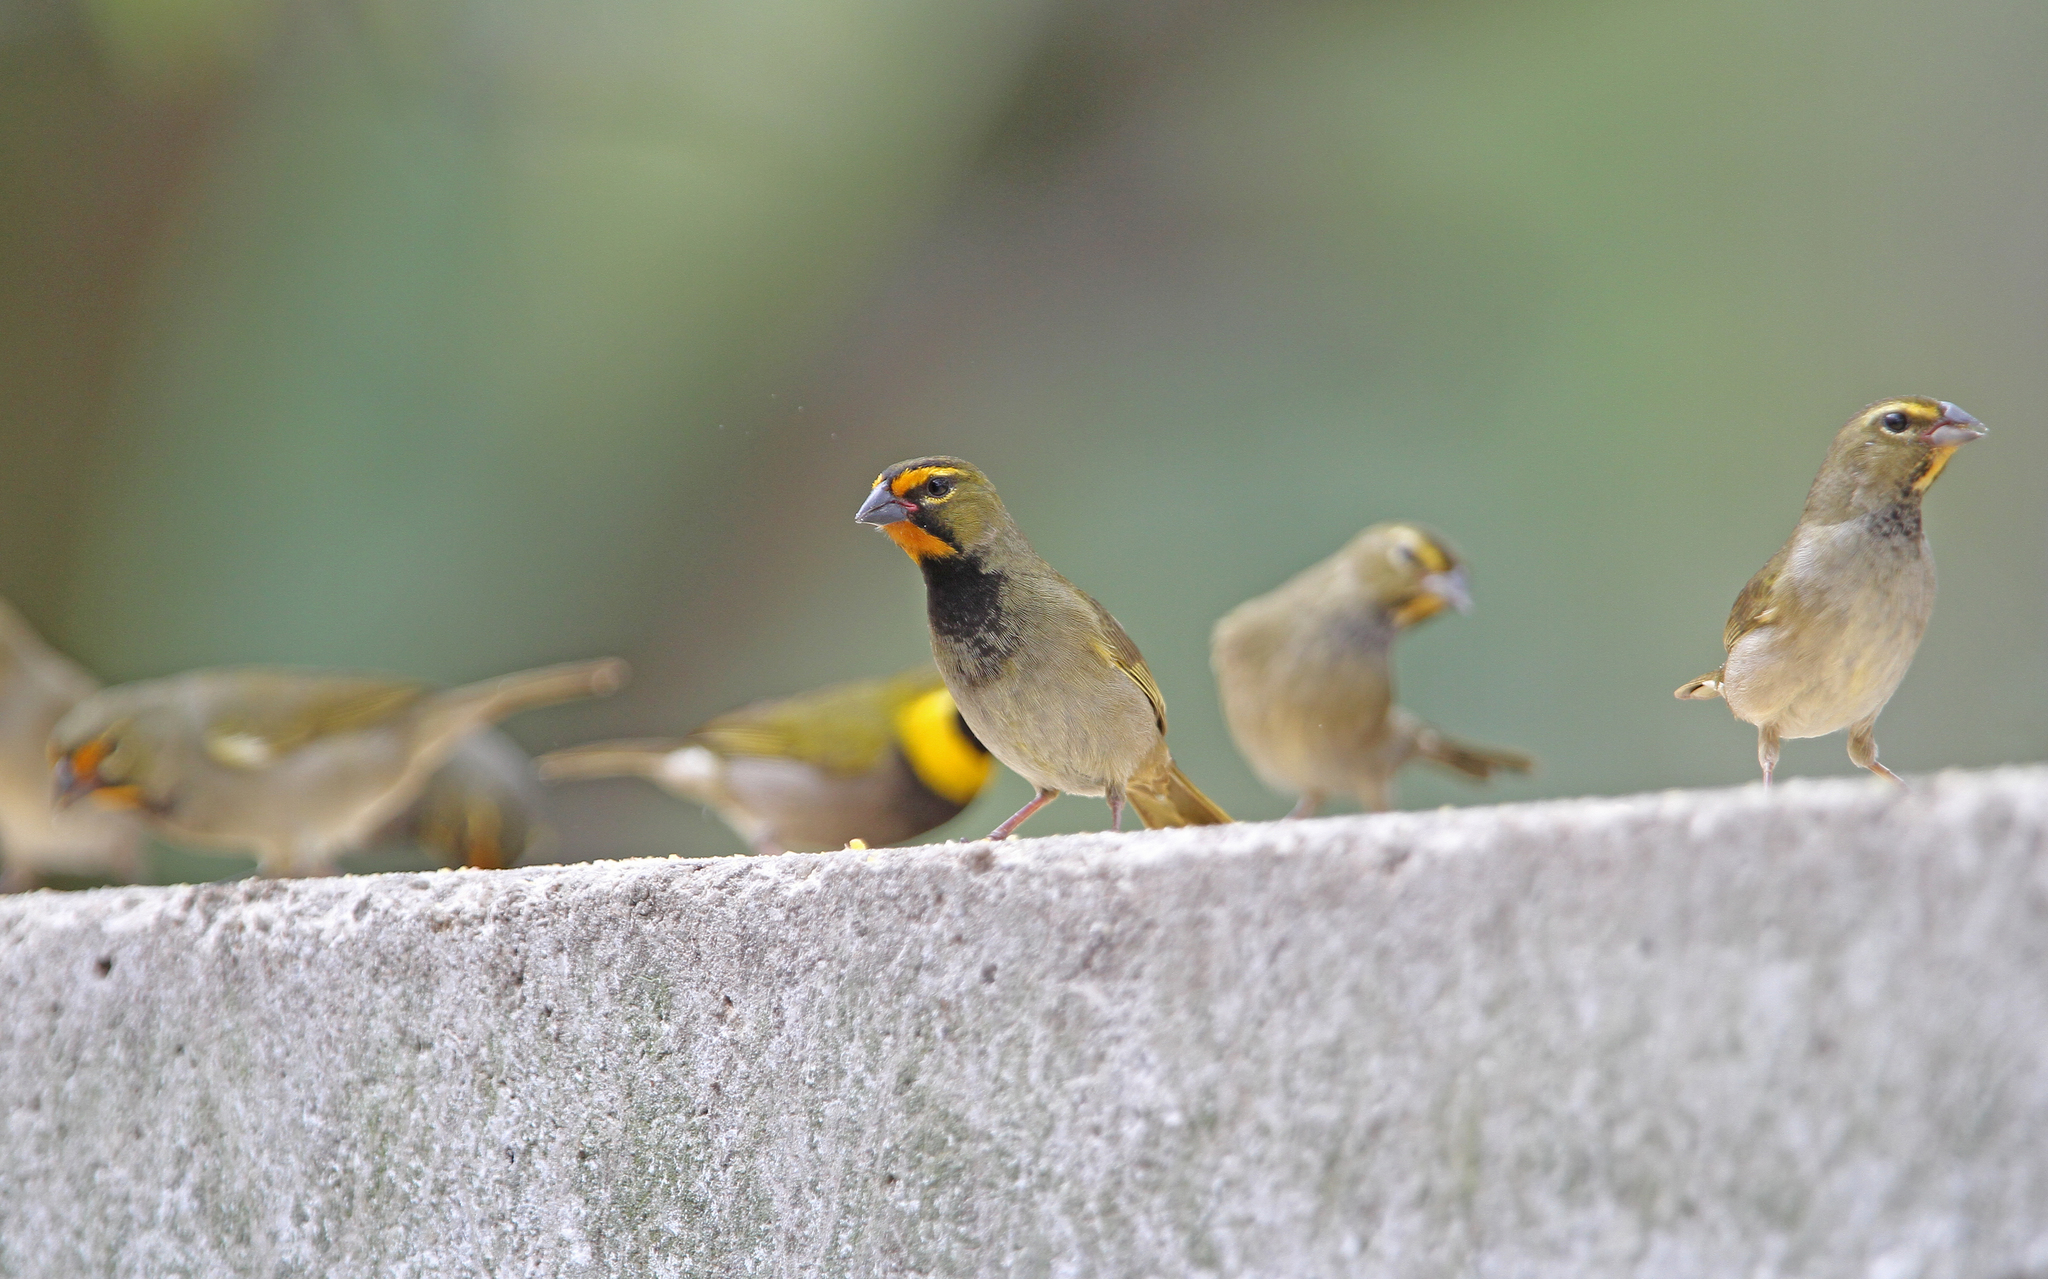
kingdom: Animalia
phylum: Chordata
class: Aves
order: Passeriformes
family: Thraupidae
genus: Tiaris
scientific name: Tiaris olivaceus
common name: Yellow-faced grassquit
